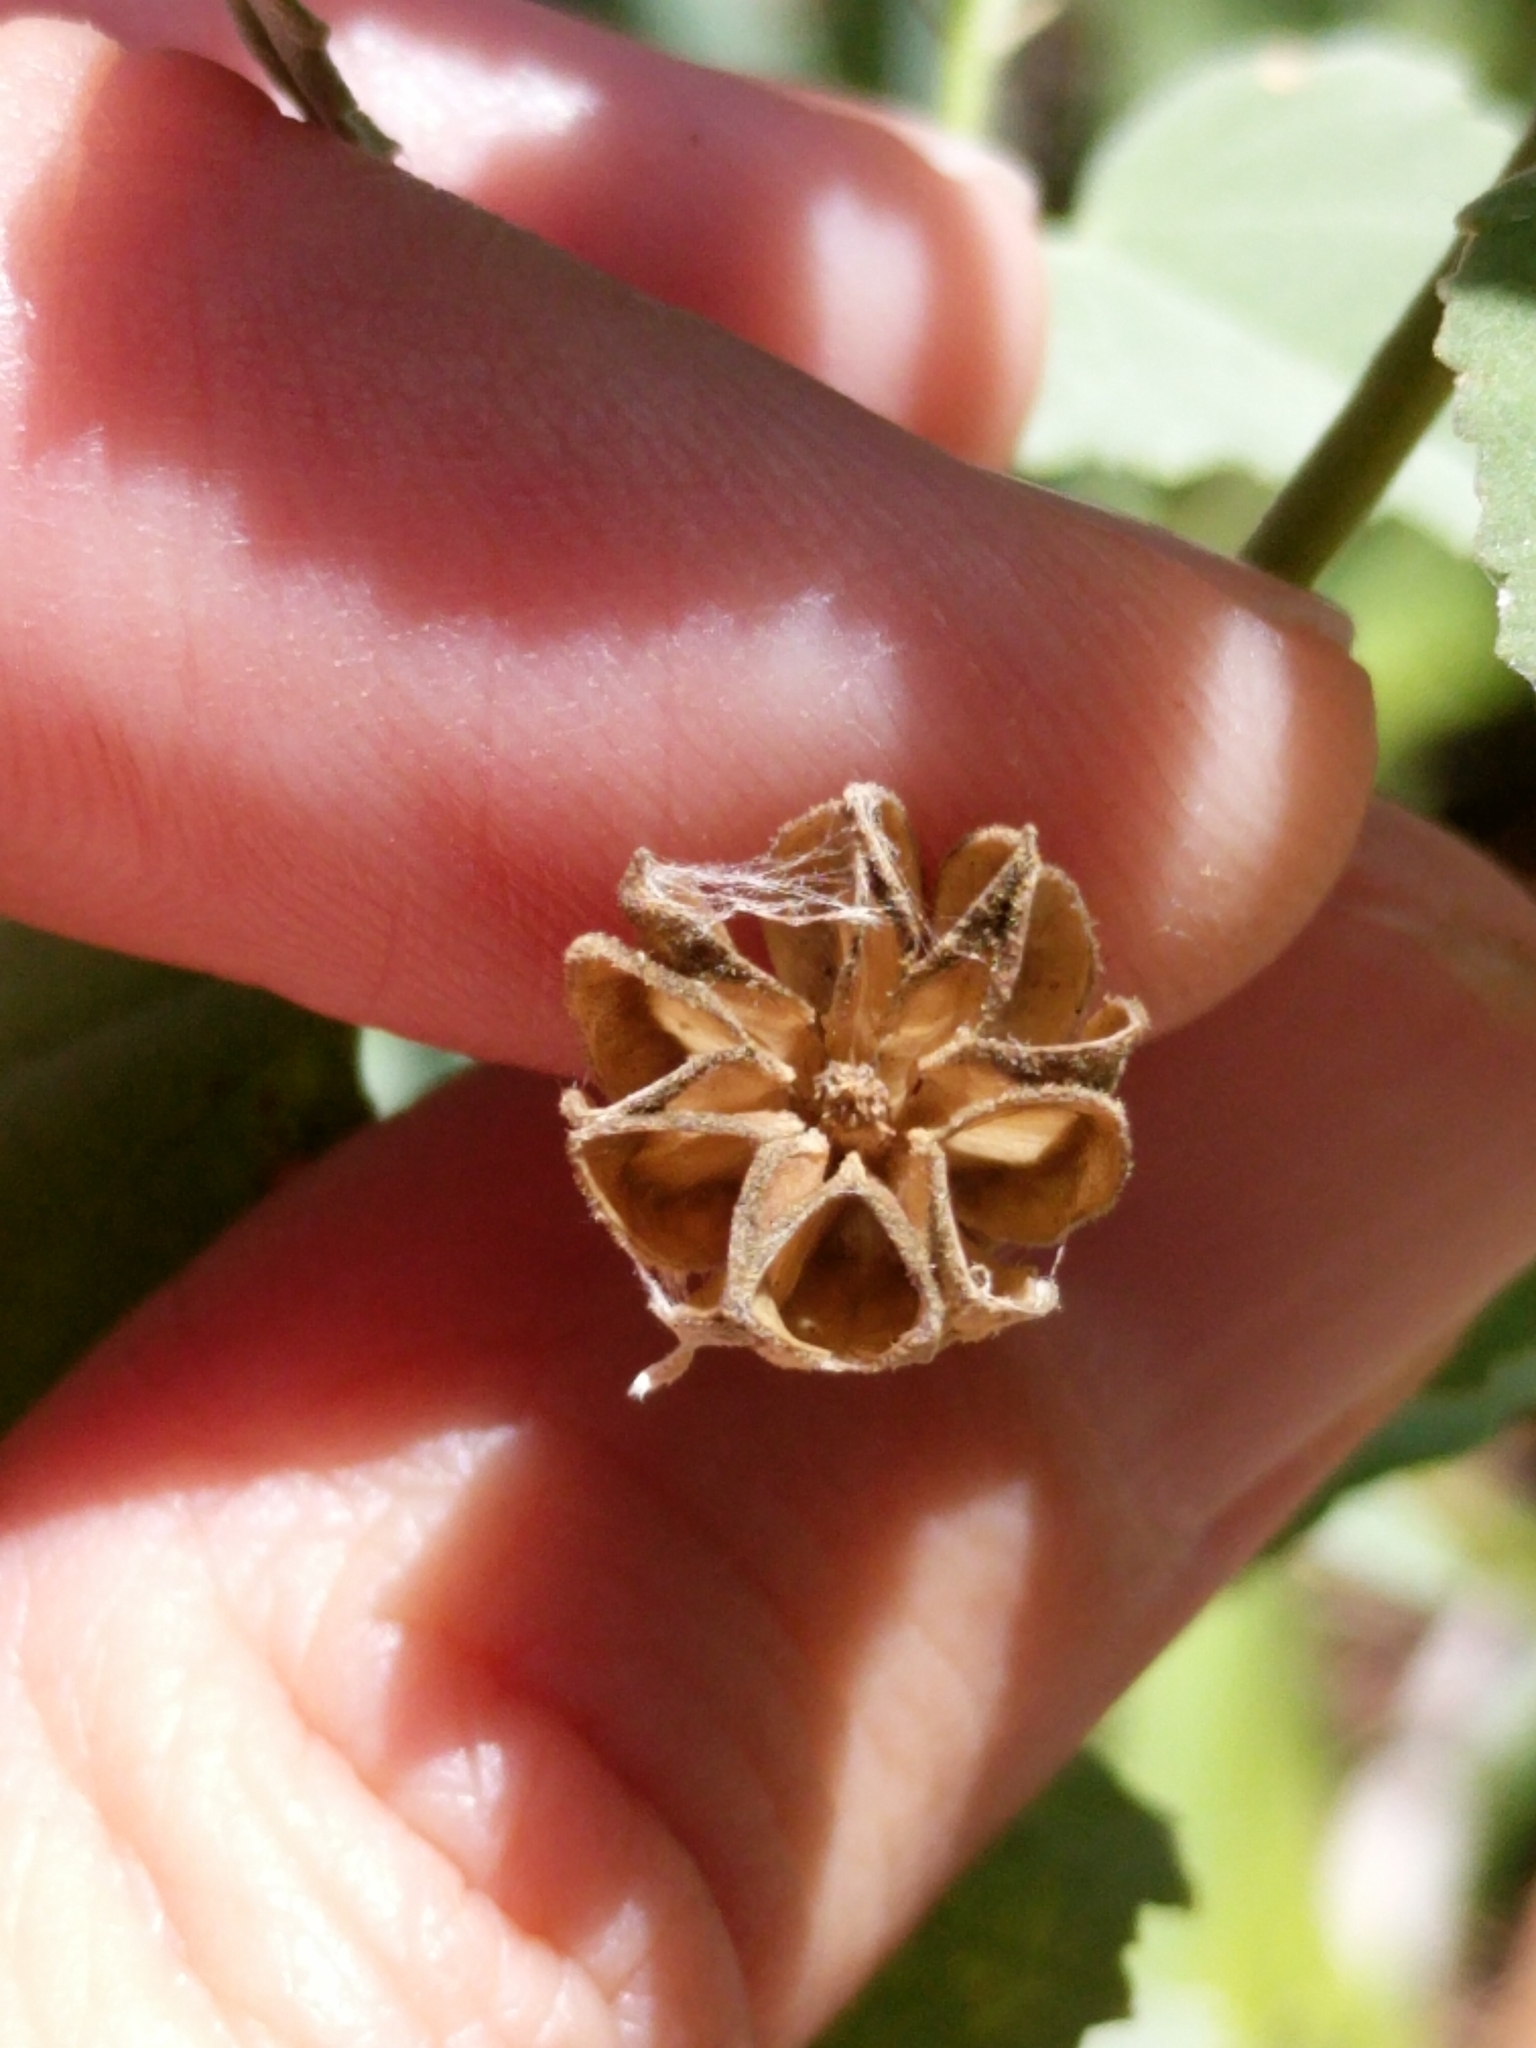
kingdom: Plantae
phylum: Tracheophyta
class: Magnoliopsida
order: Malvales
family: Malvaceae
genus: Abutilon
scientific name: Abutilon fruticosum
